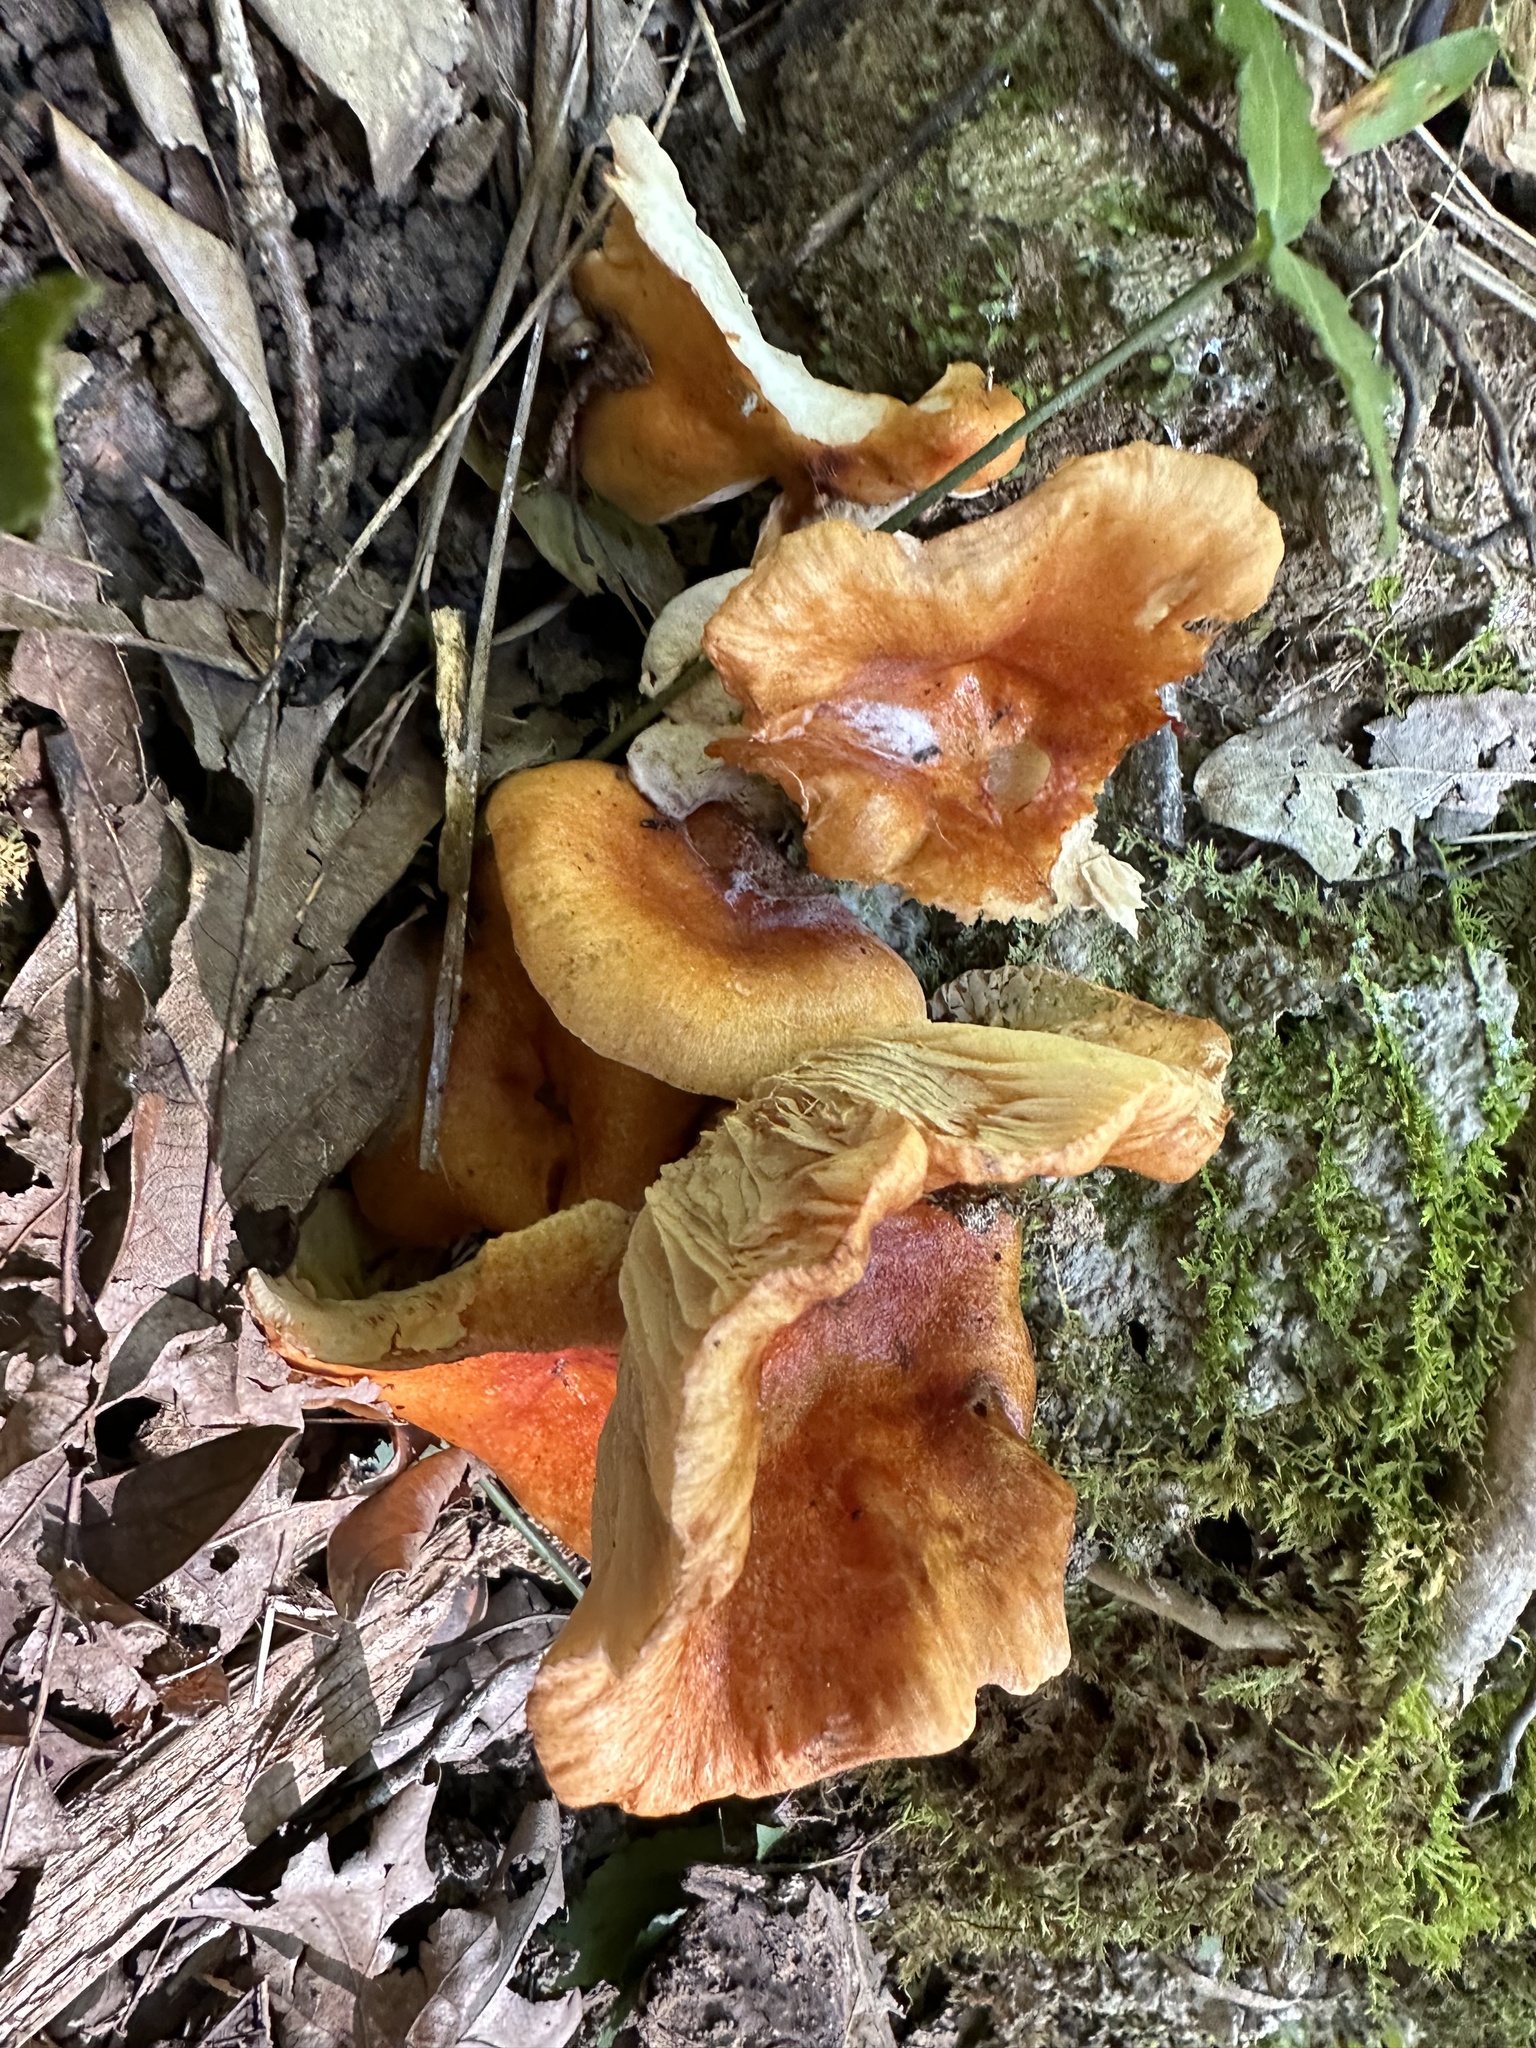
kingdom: Fungi
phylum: Basidiomycota
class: Agaricomycetes
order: Agaricales
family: Omphalotaceae
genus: Omphalotus
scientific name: Omphalotus illudens
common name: Jack o lantern
